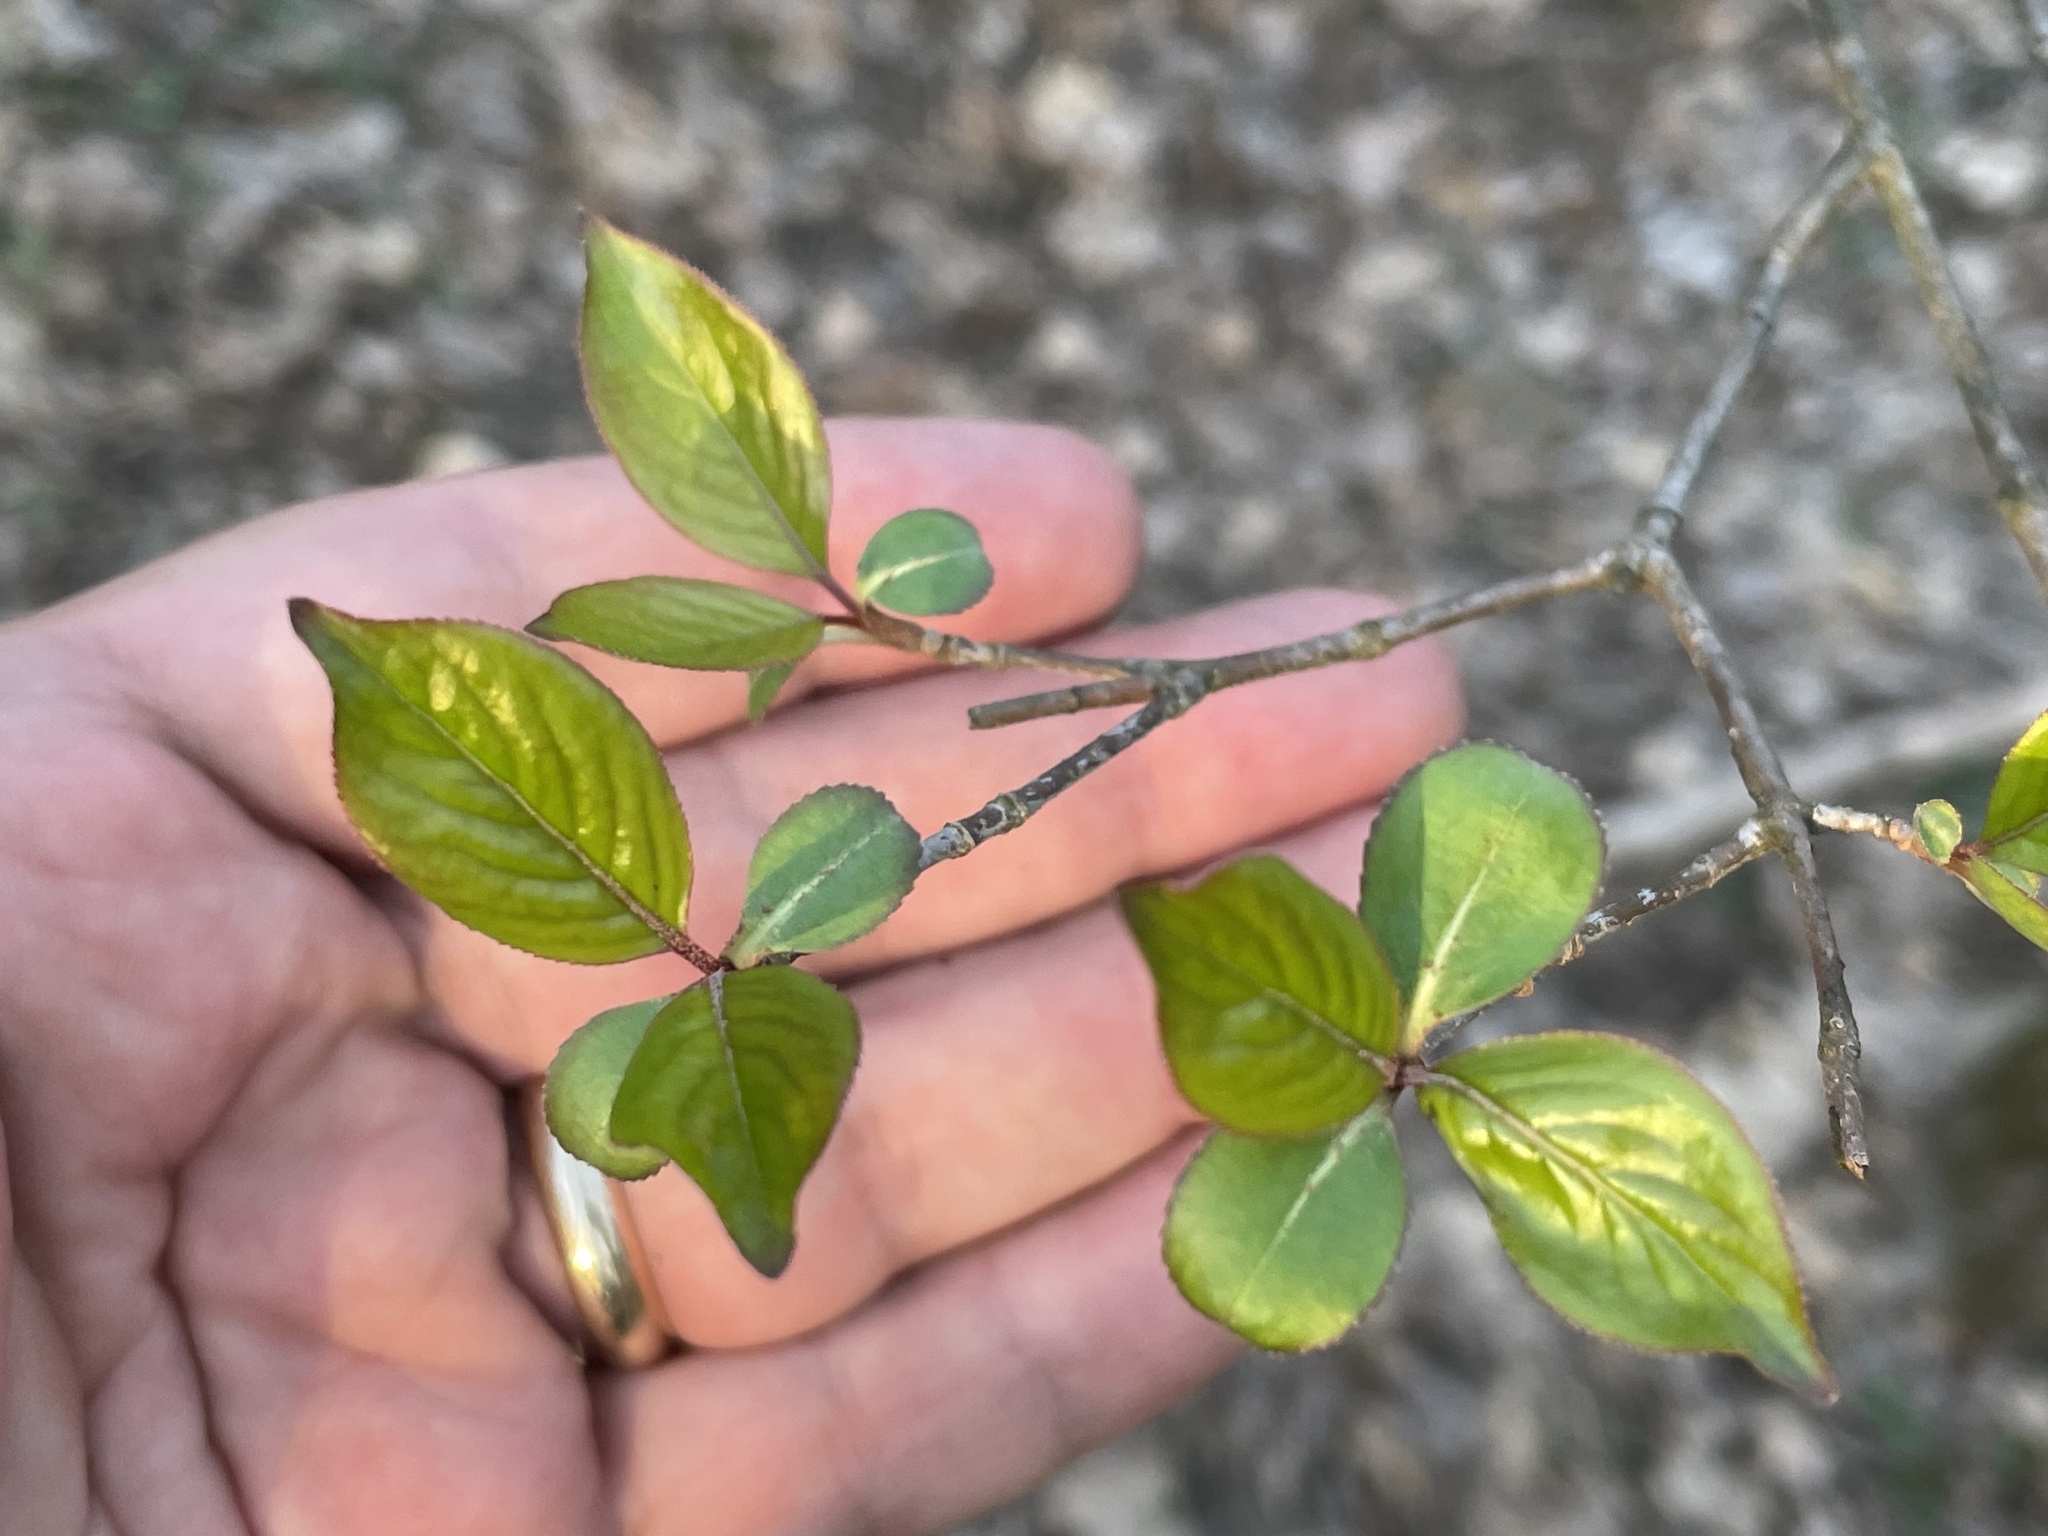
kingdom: Plantae
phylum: Tracheophyta
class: Magnoliopsida
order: Dipsacales
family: Viburnaceae
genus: Viburnum
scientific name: Viburnum prunifolium
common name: Black haw
